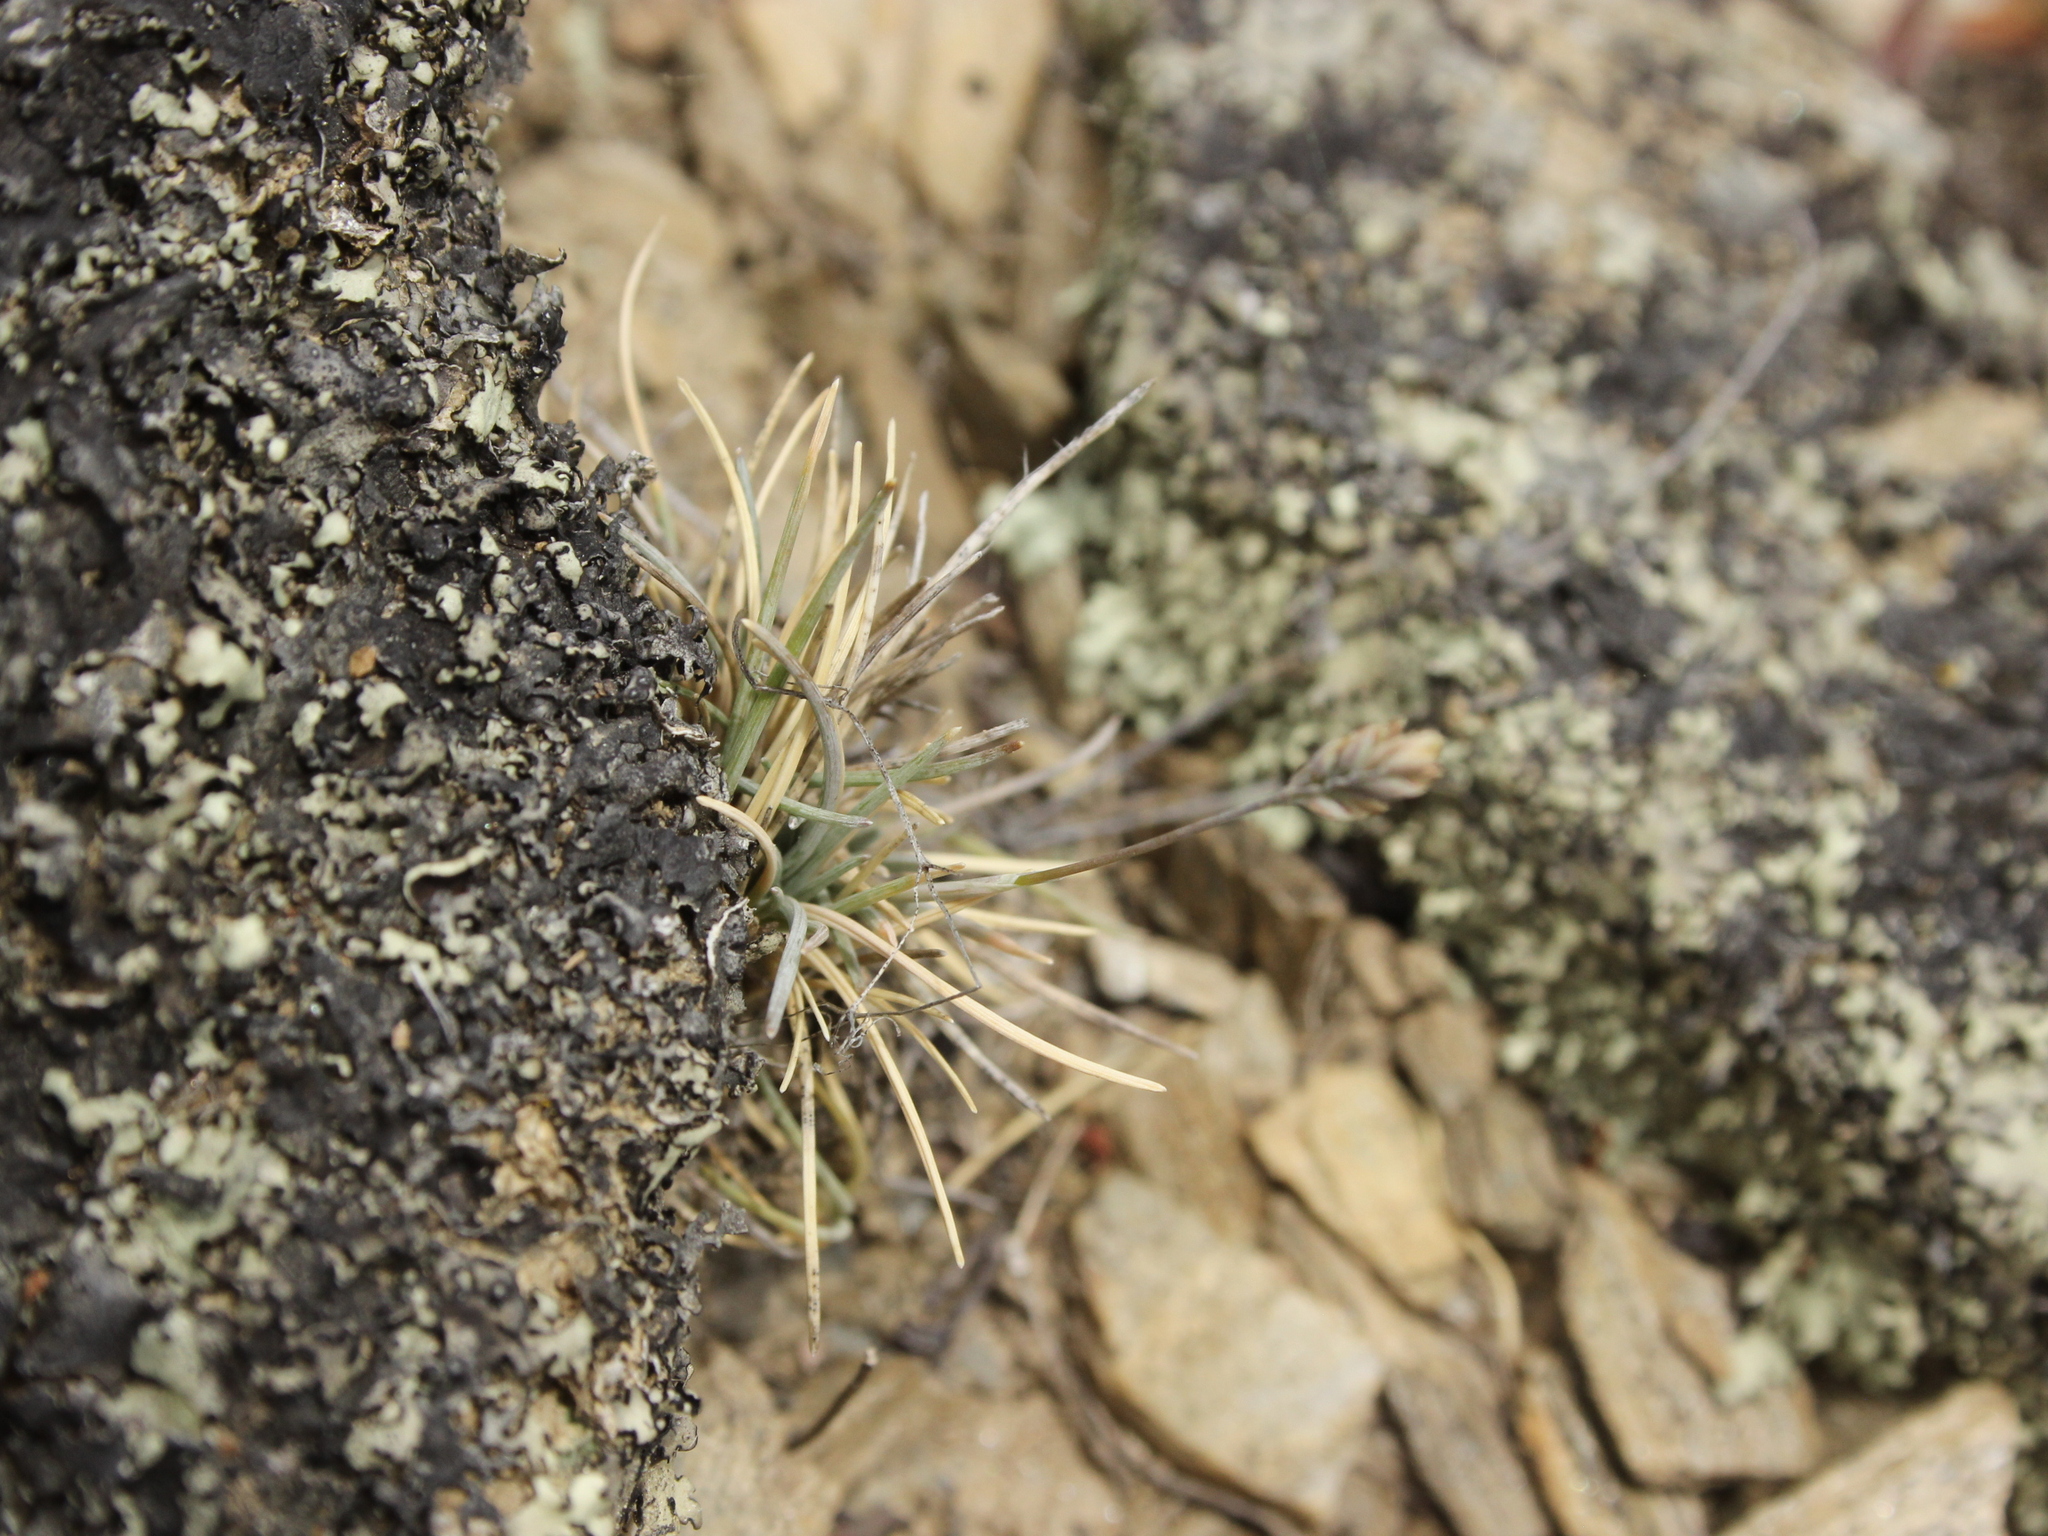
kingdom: Plantae
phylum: Tracheophyta
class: Liliopsida
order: Poales
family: Poaceae
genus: Poa
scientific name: Poa maniototo
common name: Desert poa
